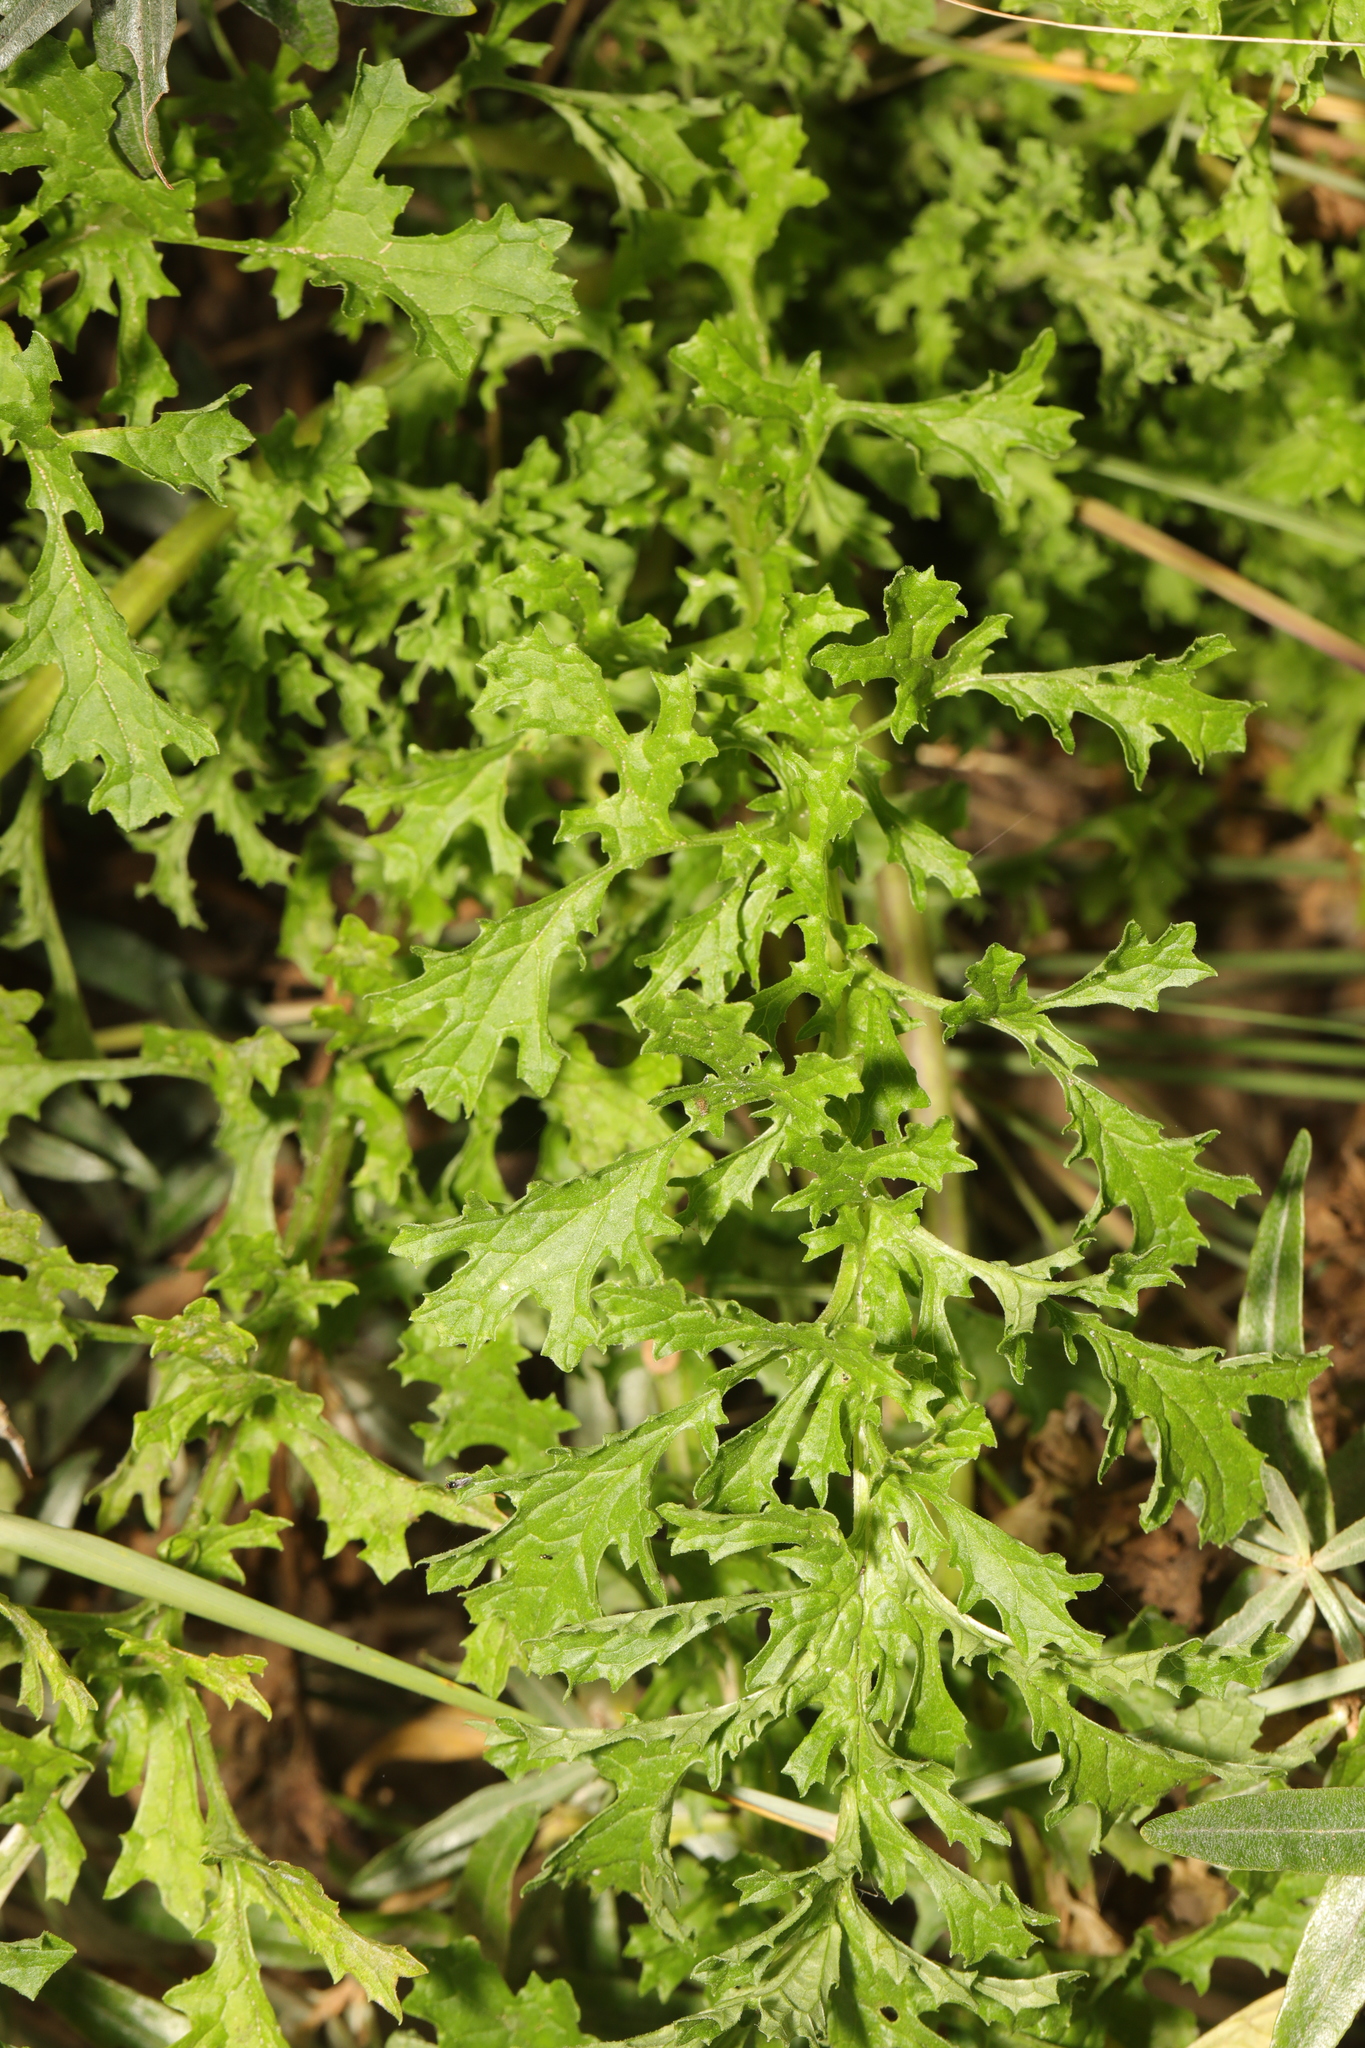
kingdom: Plantae
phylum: Tracheophyta
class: Magnoliopsida
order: Asterales
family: Asteraceae
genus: Jacobaea
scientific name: Jacobaea vulgaris
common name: Stinking willie
